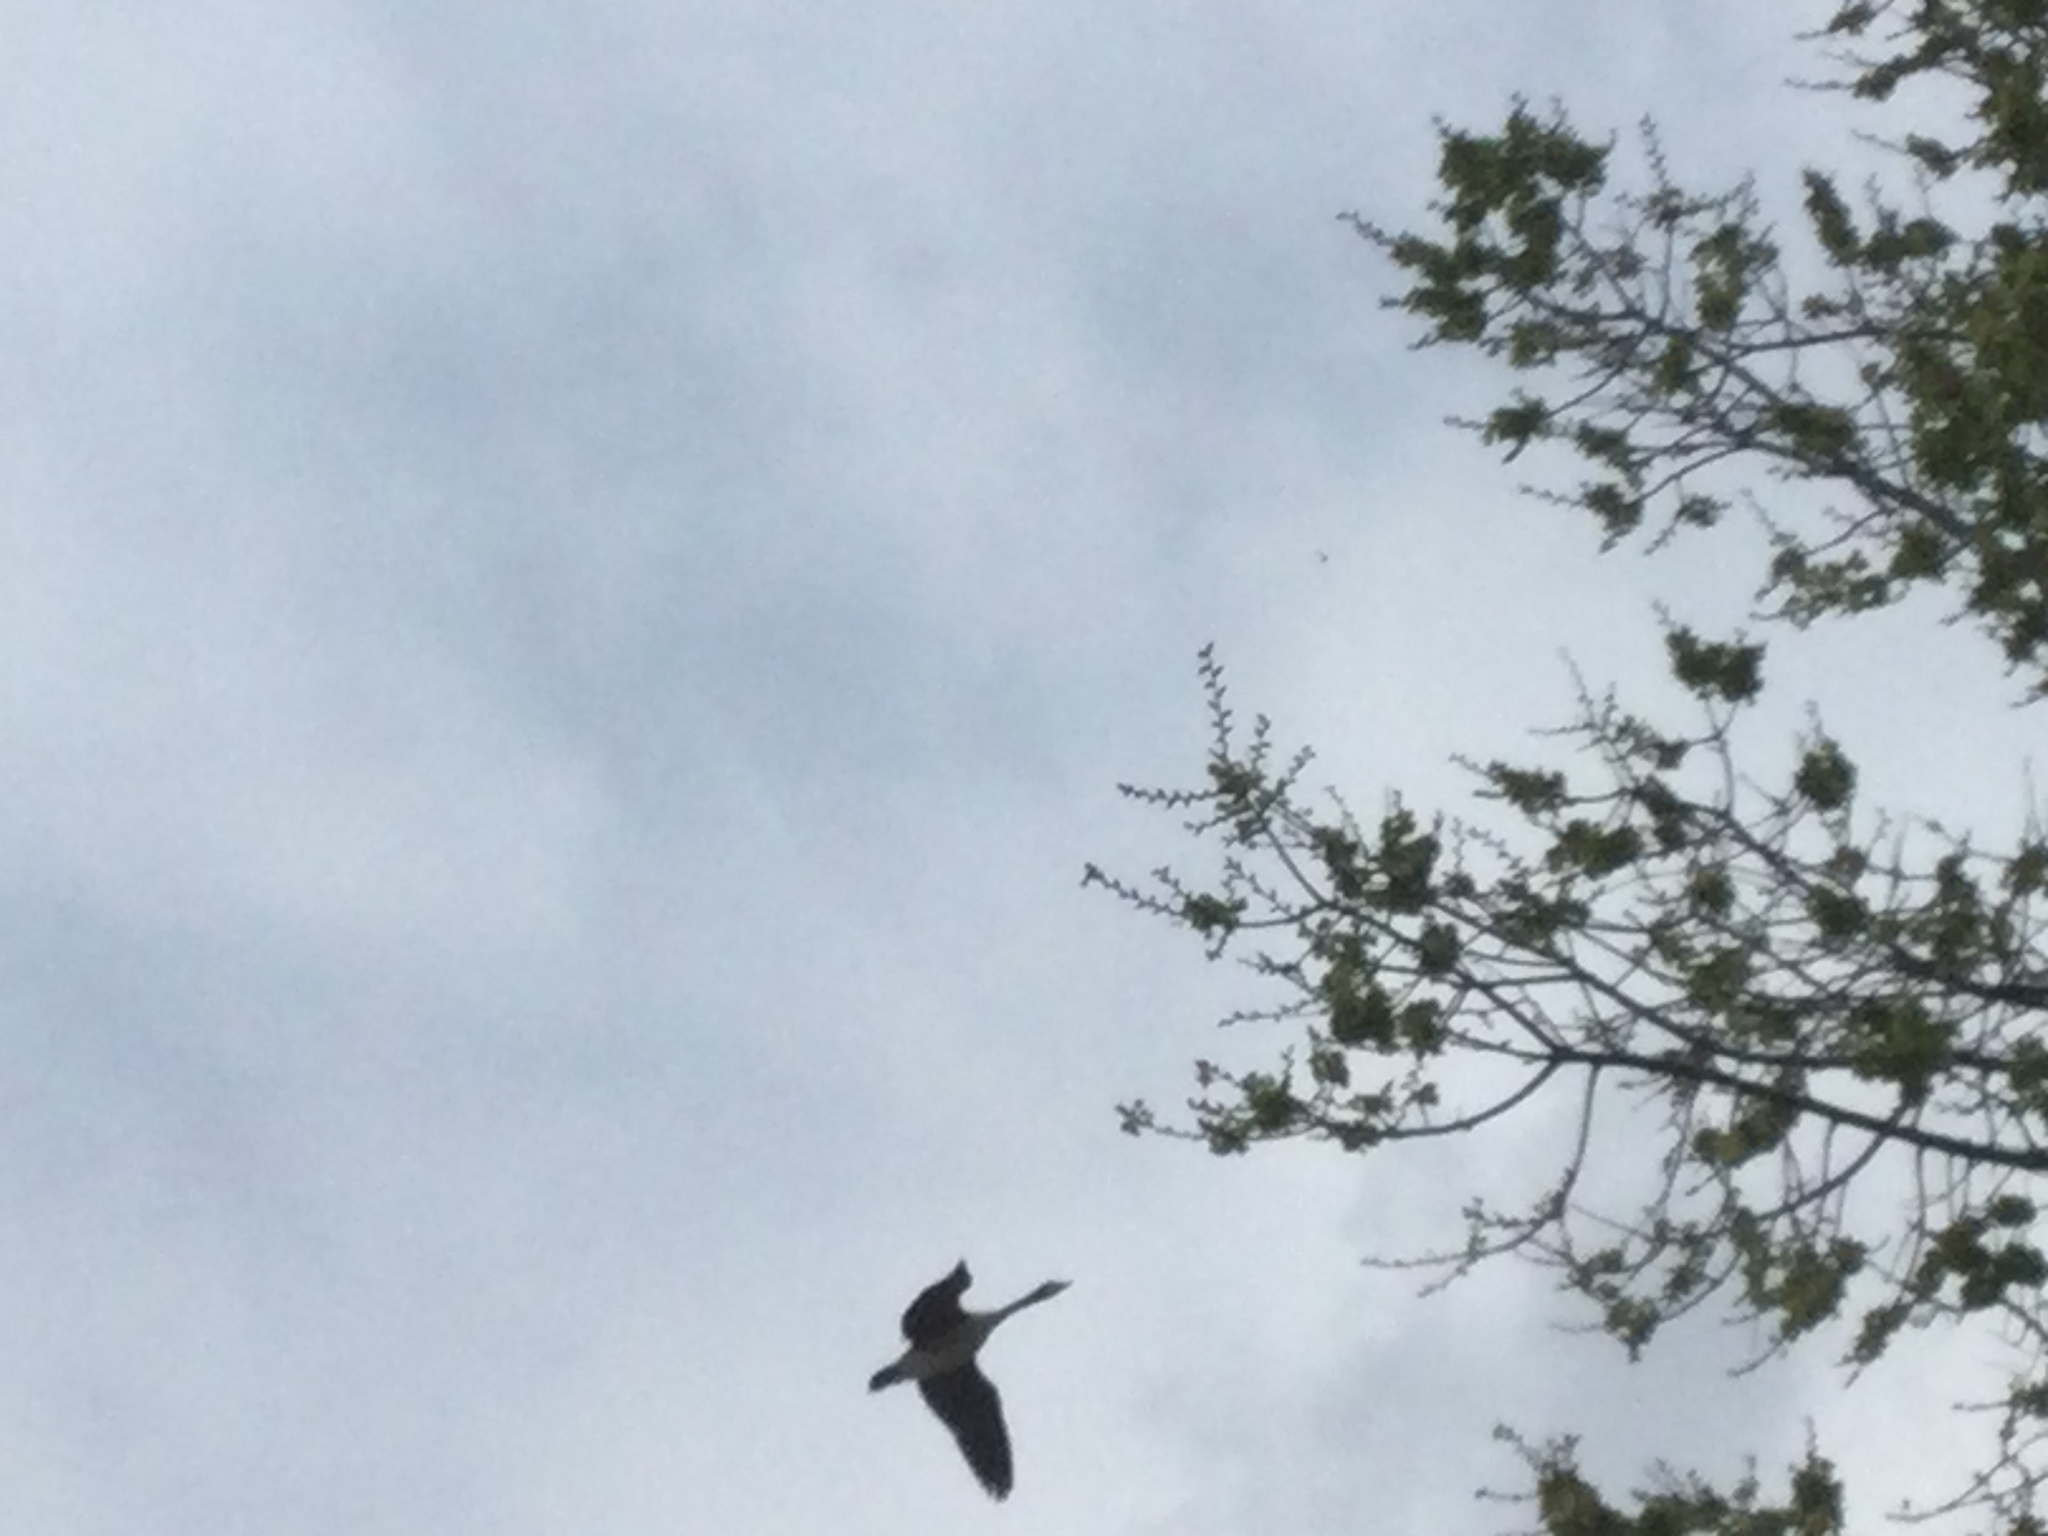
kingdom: Animalia
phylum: Chordata
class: Aves
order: Anseriformes
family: Anatidae
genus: Branta
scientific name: Branta canadensis
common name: Canada goose
